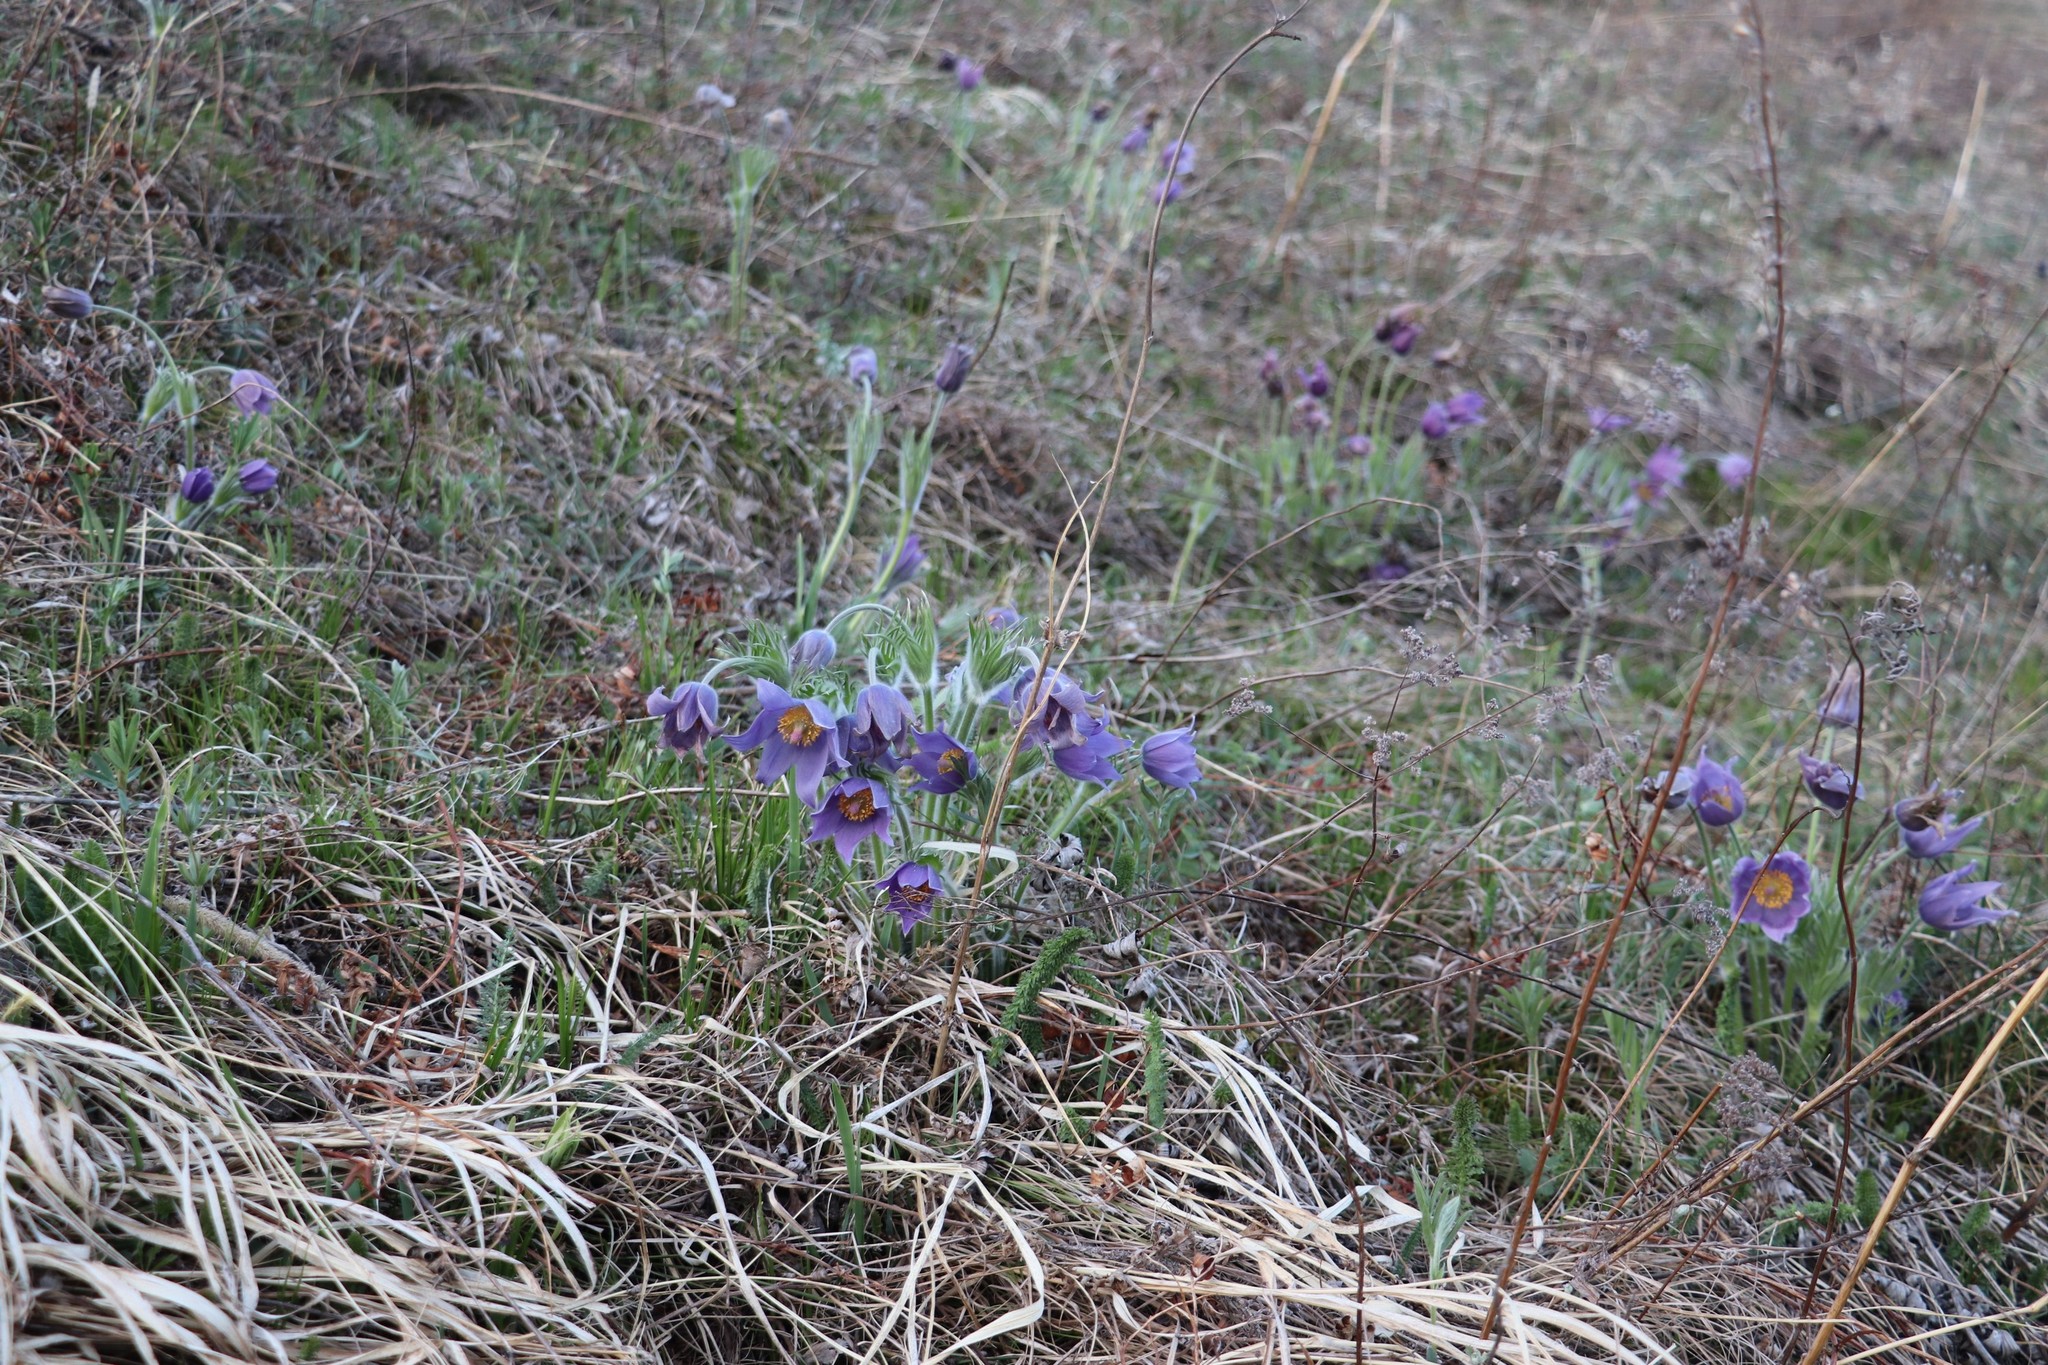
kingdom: Plantae
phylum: Tracheophyta
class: Magnoliopsida
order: Ranunculales
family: Ranunculaceae
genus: Pulsatilla
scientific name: Pulsatilla patens
